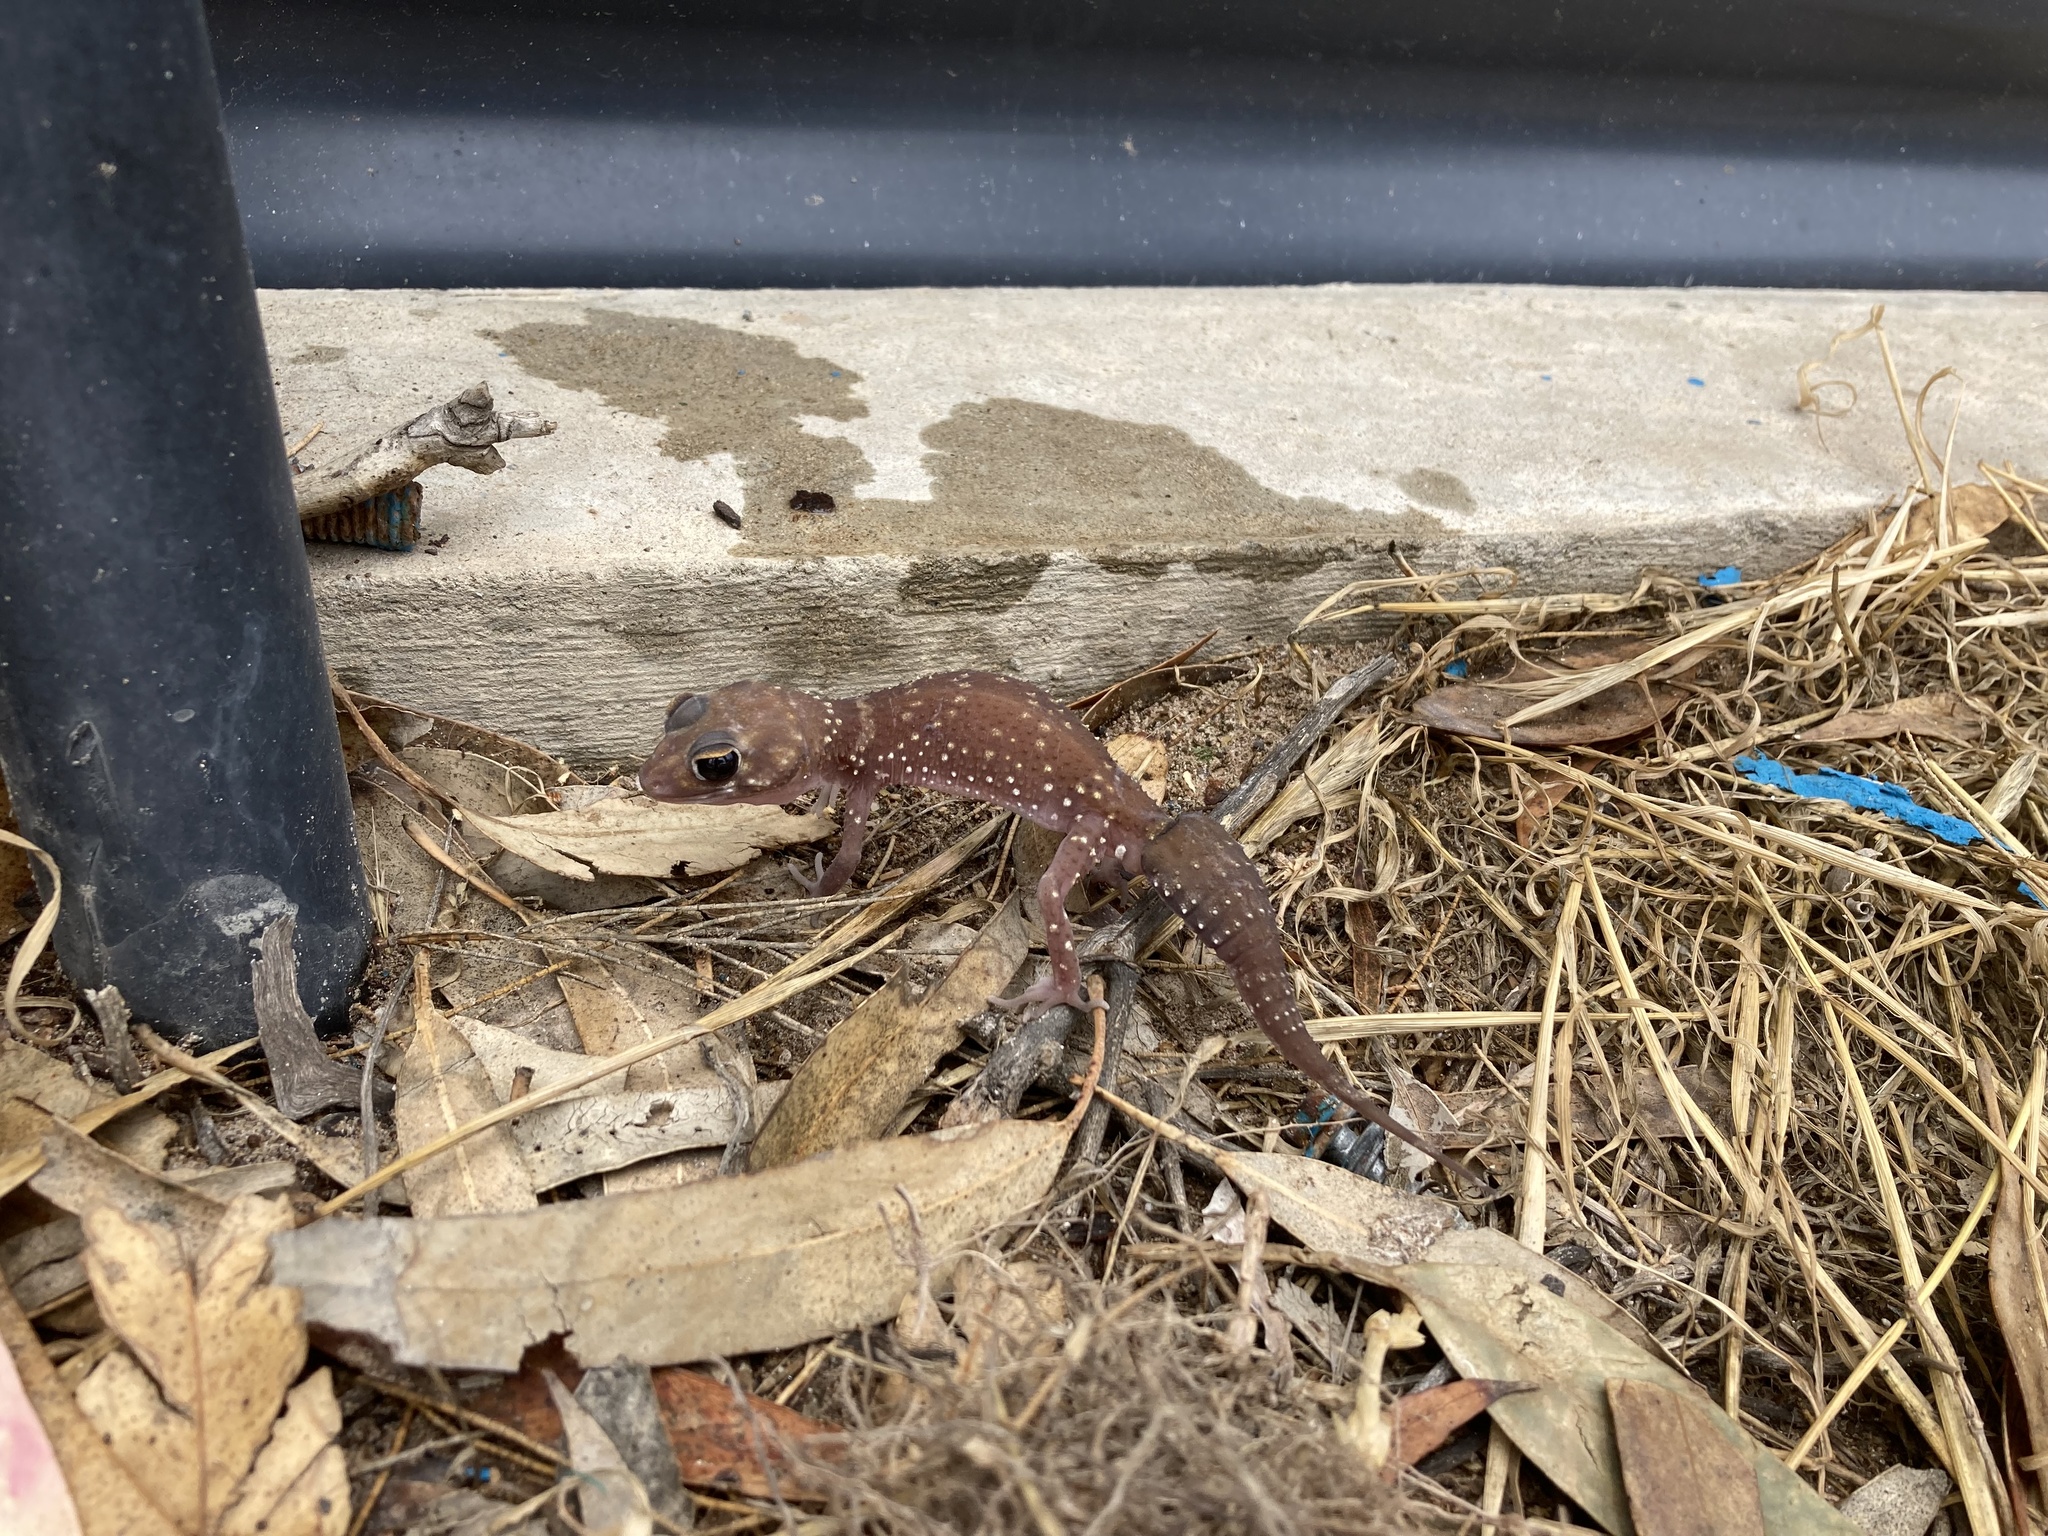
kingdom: Animalia
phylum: Chordata
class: Squamata
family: Carphodactylidae
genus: Underwoodisaurus
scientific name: Underwoodisaurus milii
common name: Barking gecko
